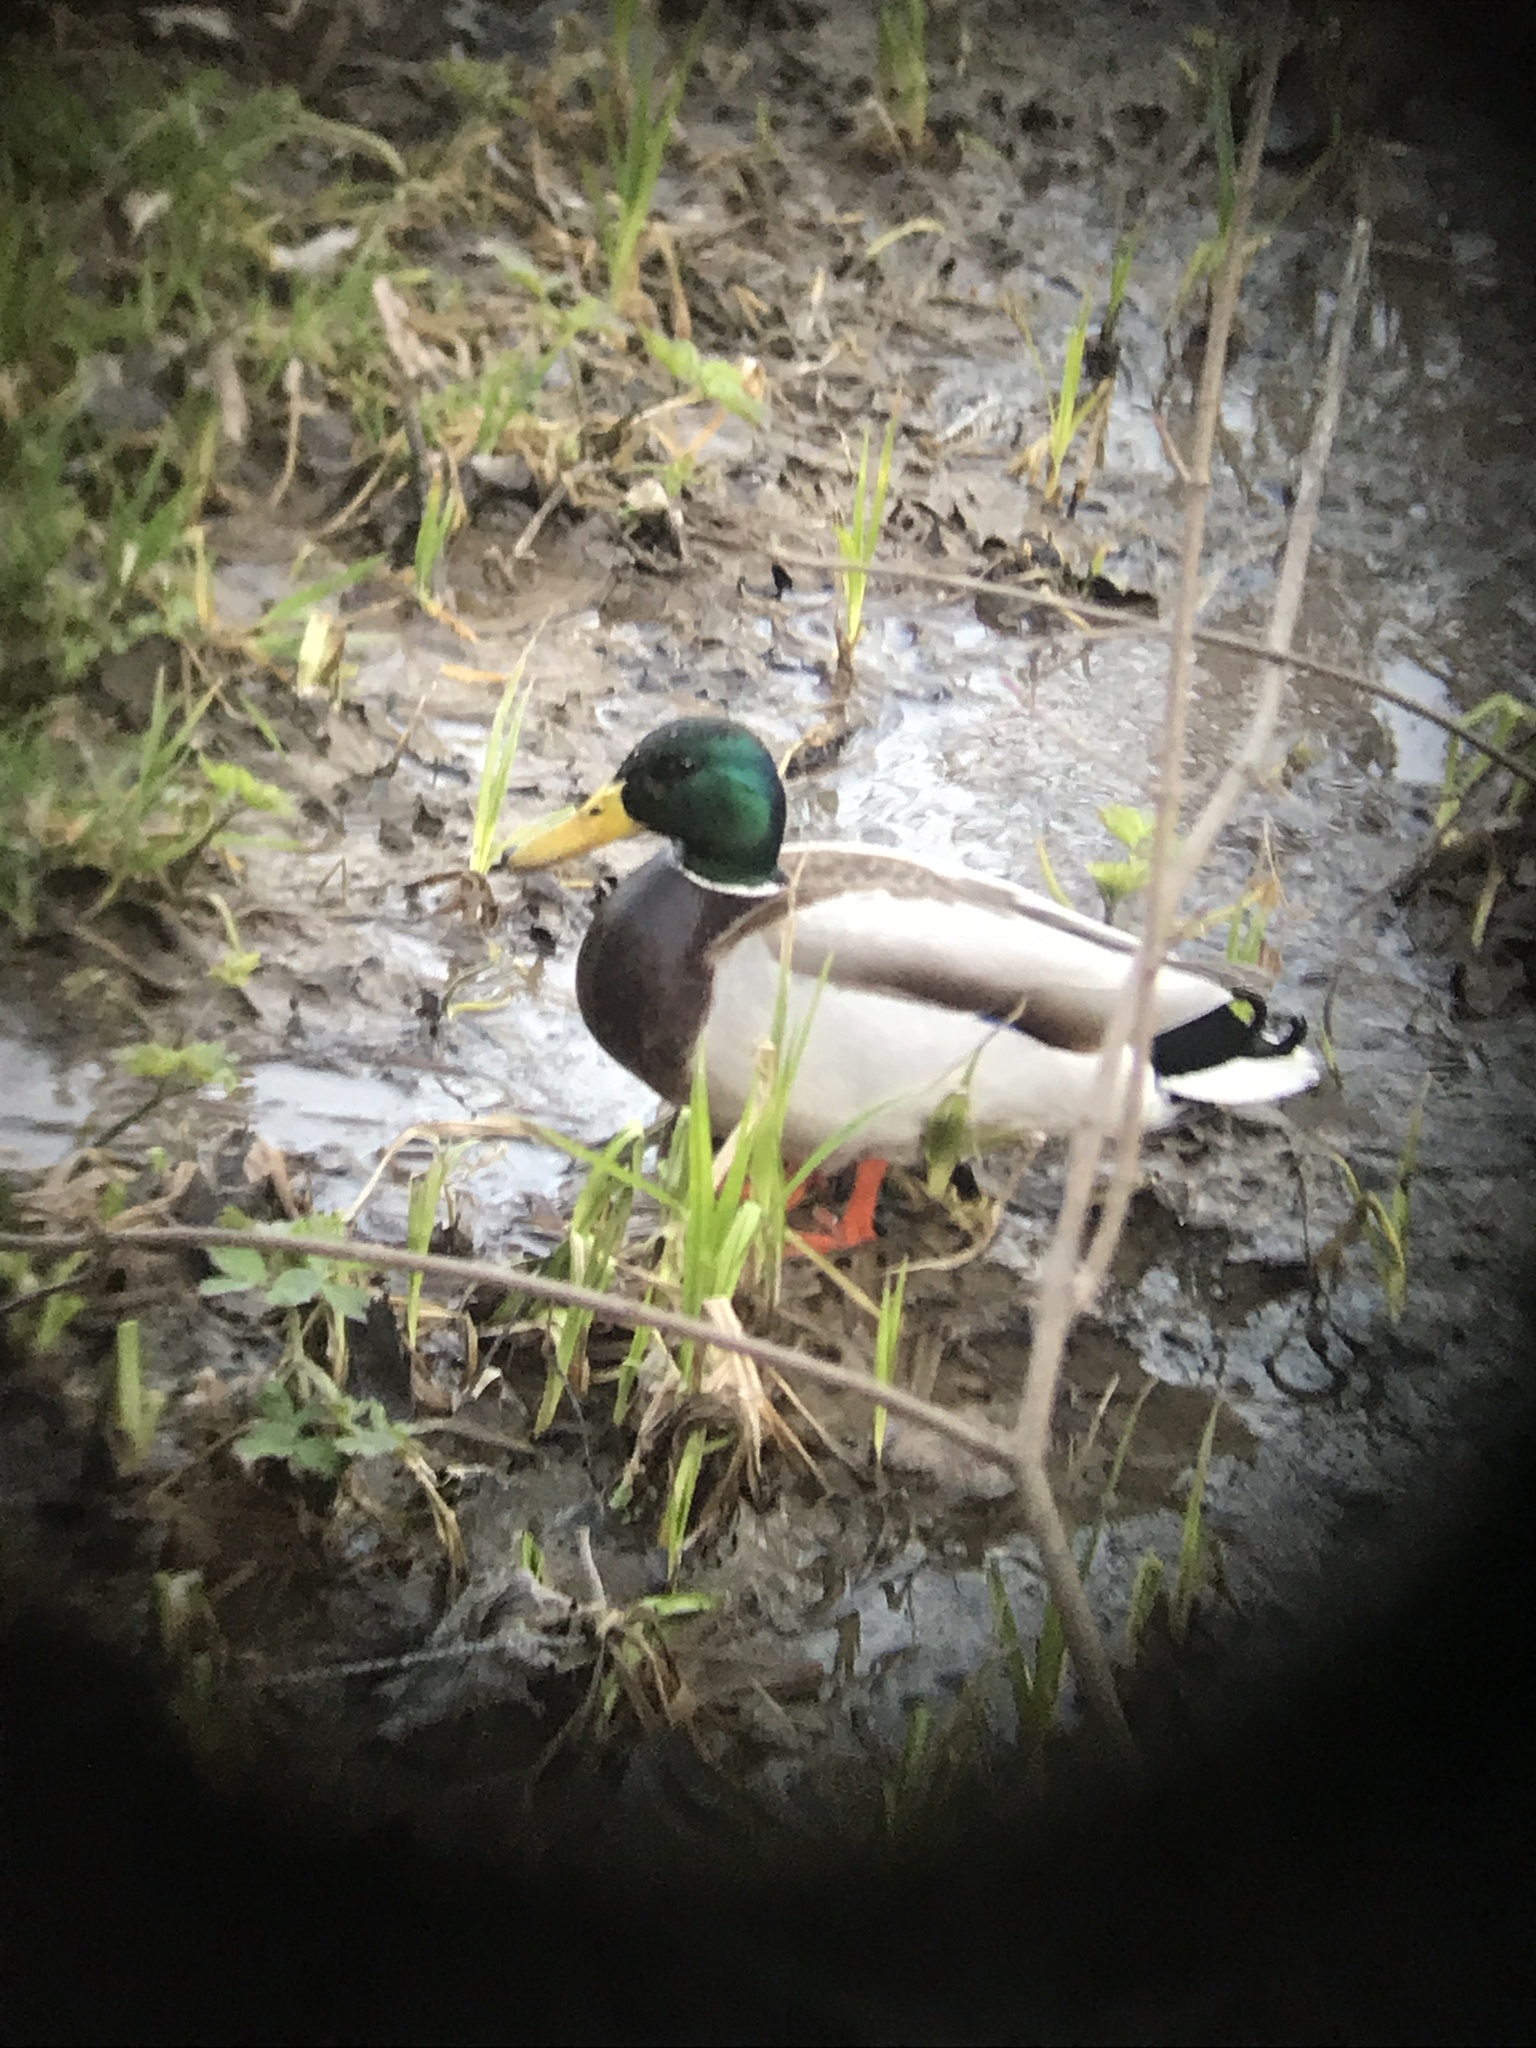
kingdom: Animalia
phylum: Chordata
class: Aves
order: Anseriformes
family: Anatidae
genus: Anas
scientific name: Anas platyrhynchos
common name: Mallard
